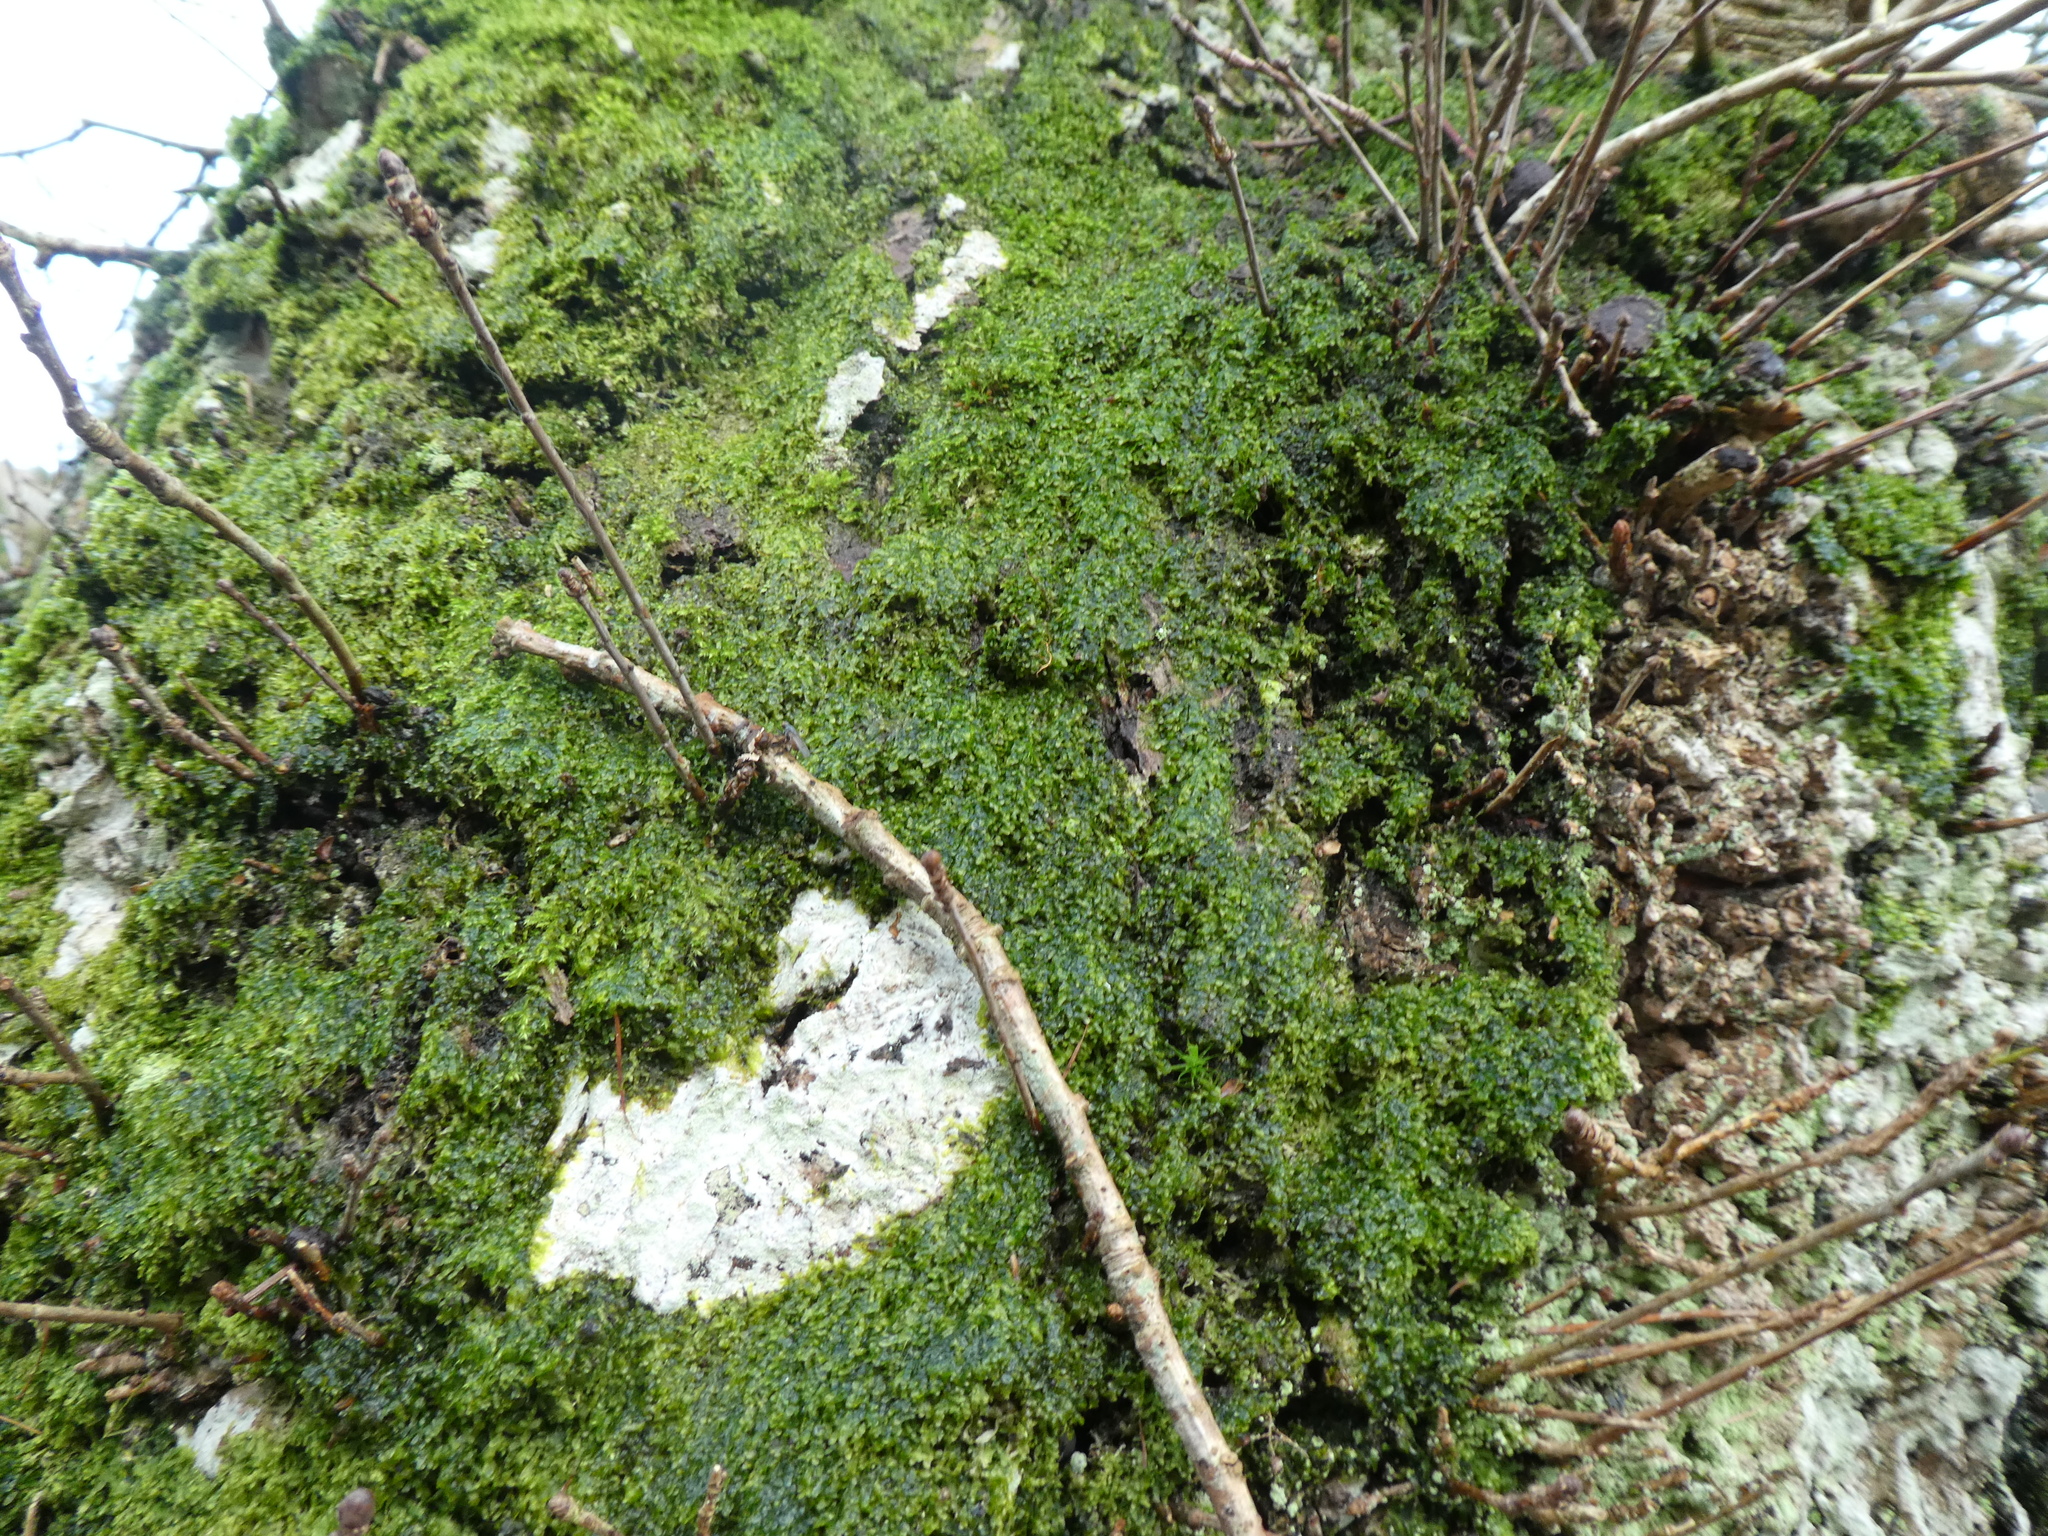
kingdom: Plantae
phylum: Marchantiophyta
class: Jungermanniopsida
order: Metzgeriales
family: Metzgeriaceae
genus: Metzgeria
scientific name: Metzgeria furcata
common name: Forked veilwort
